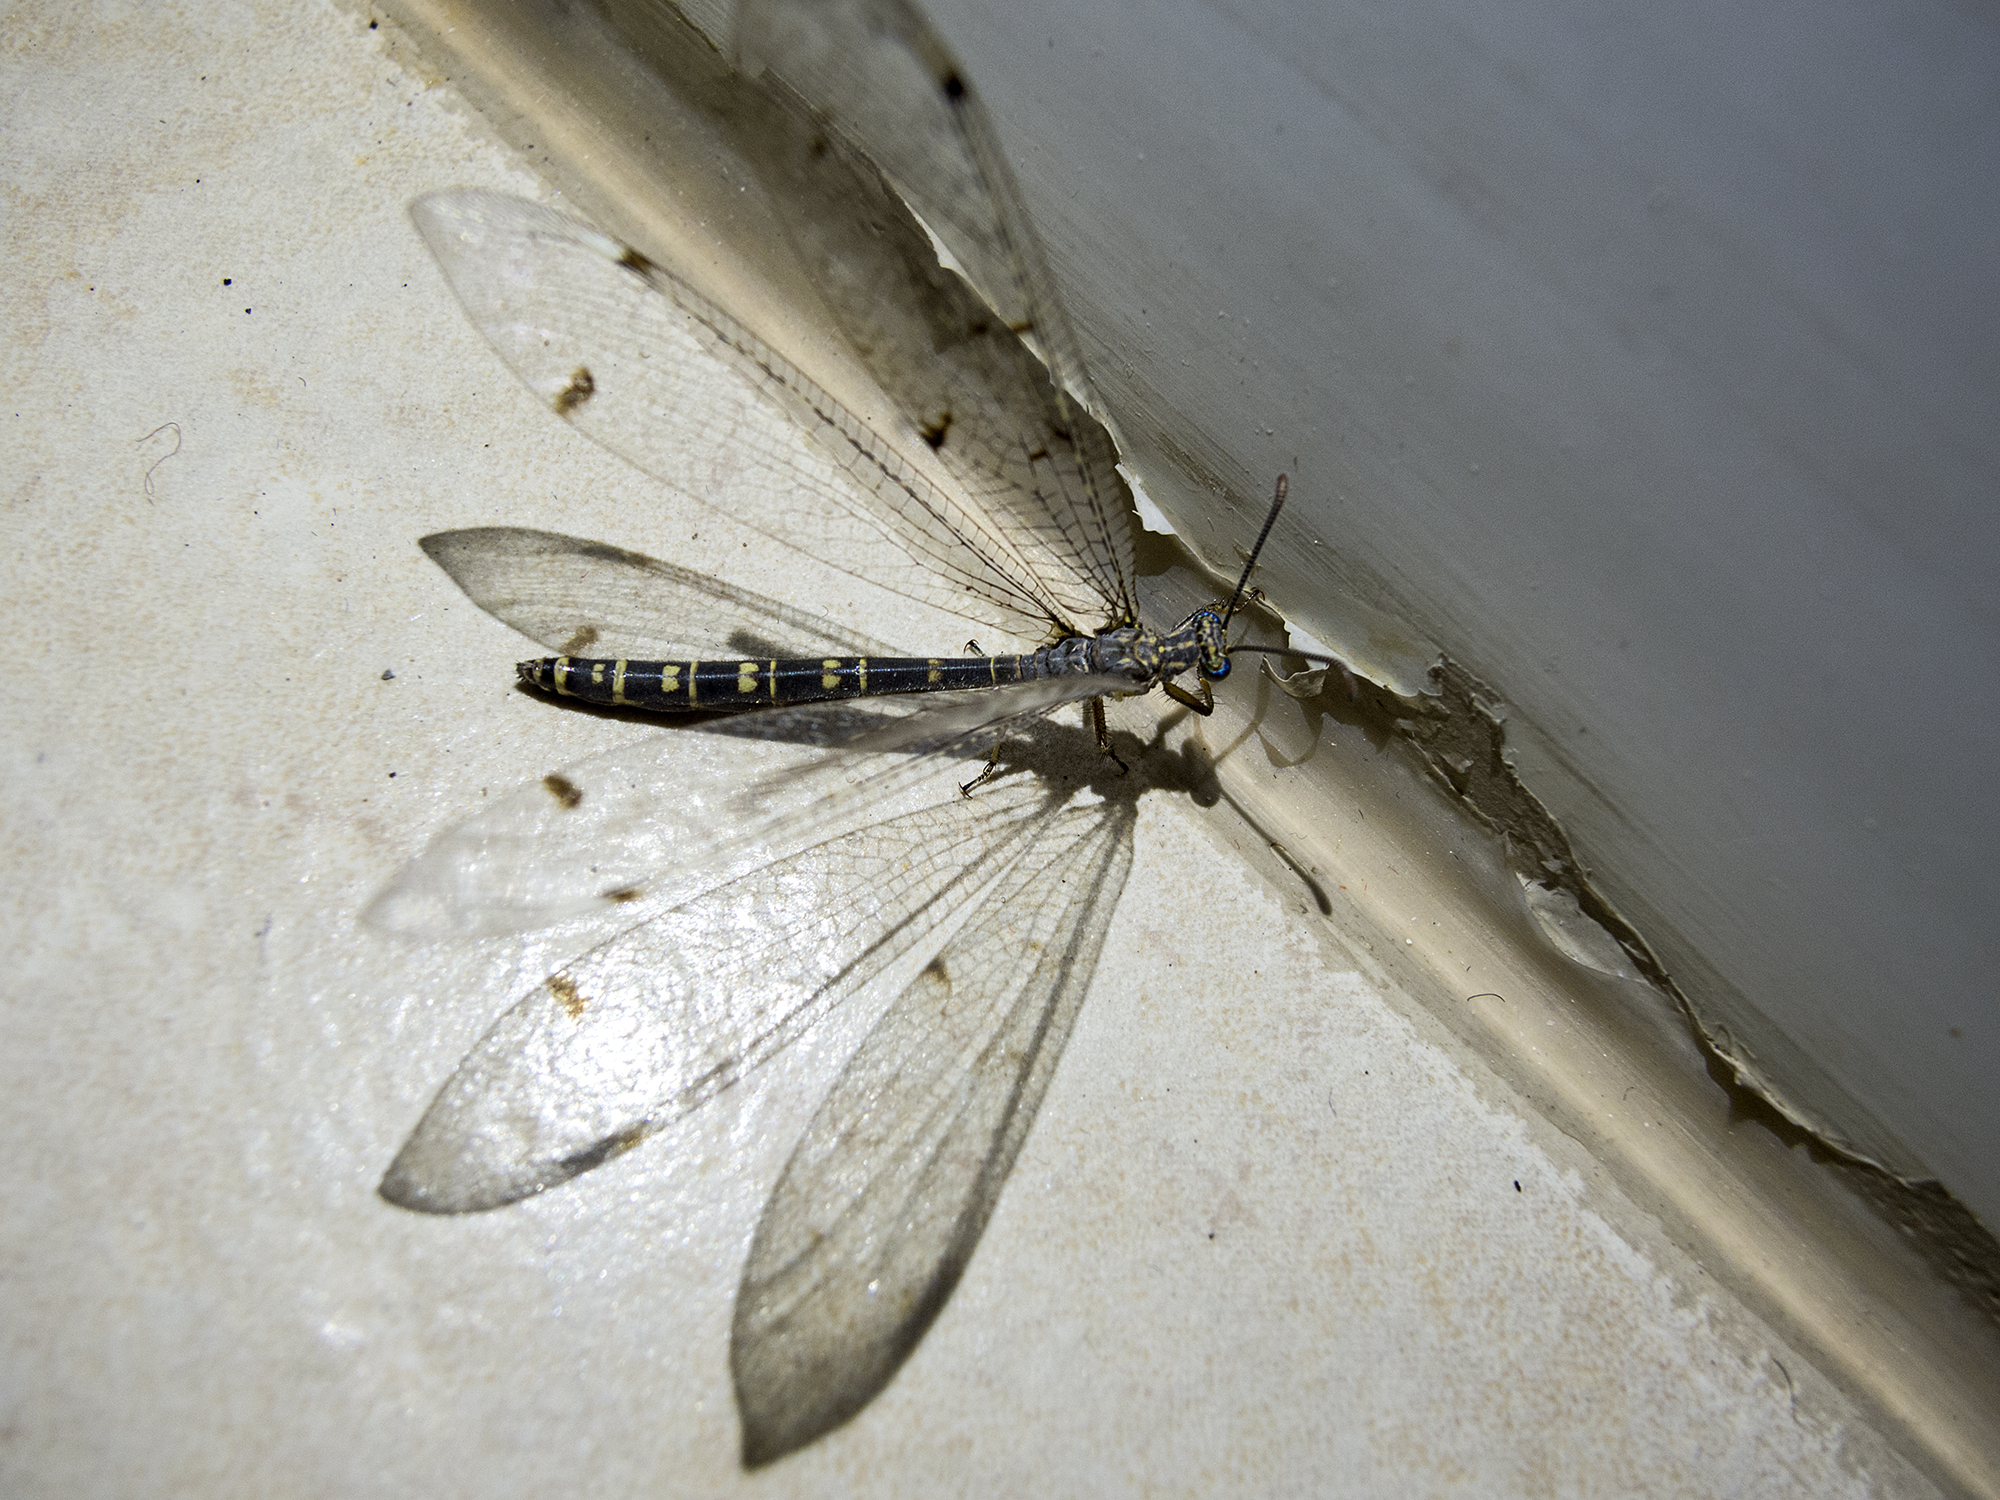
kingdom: Animalia
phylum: Arthropoda
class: Insecta
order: Neuroptera
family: Myrmeleontidae
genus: Distoleon
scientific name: Distoleon tetragrammicus
